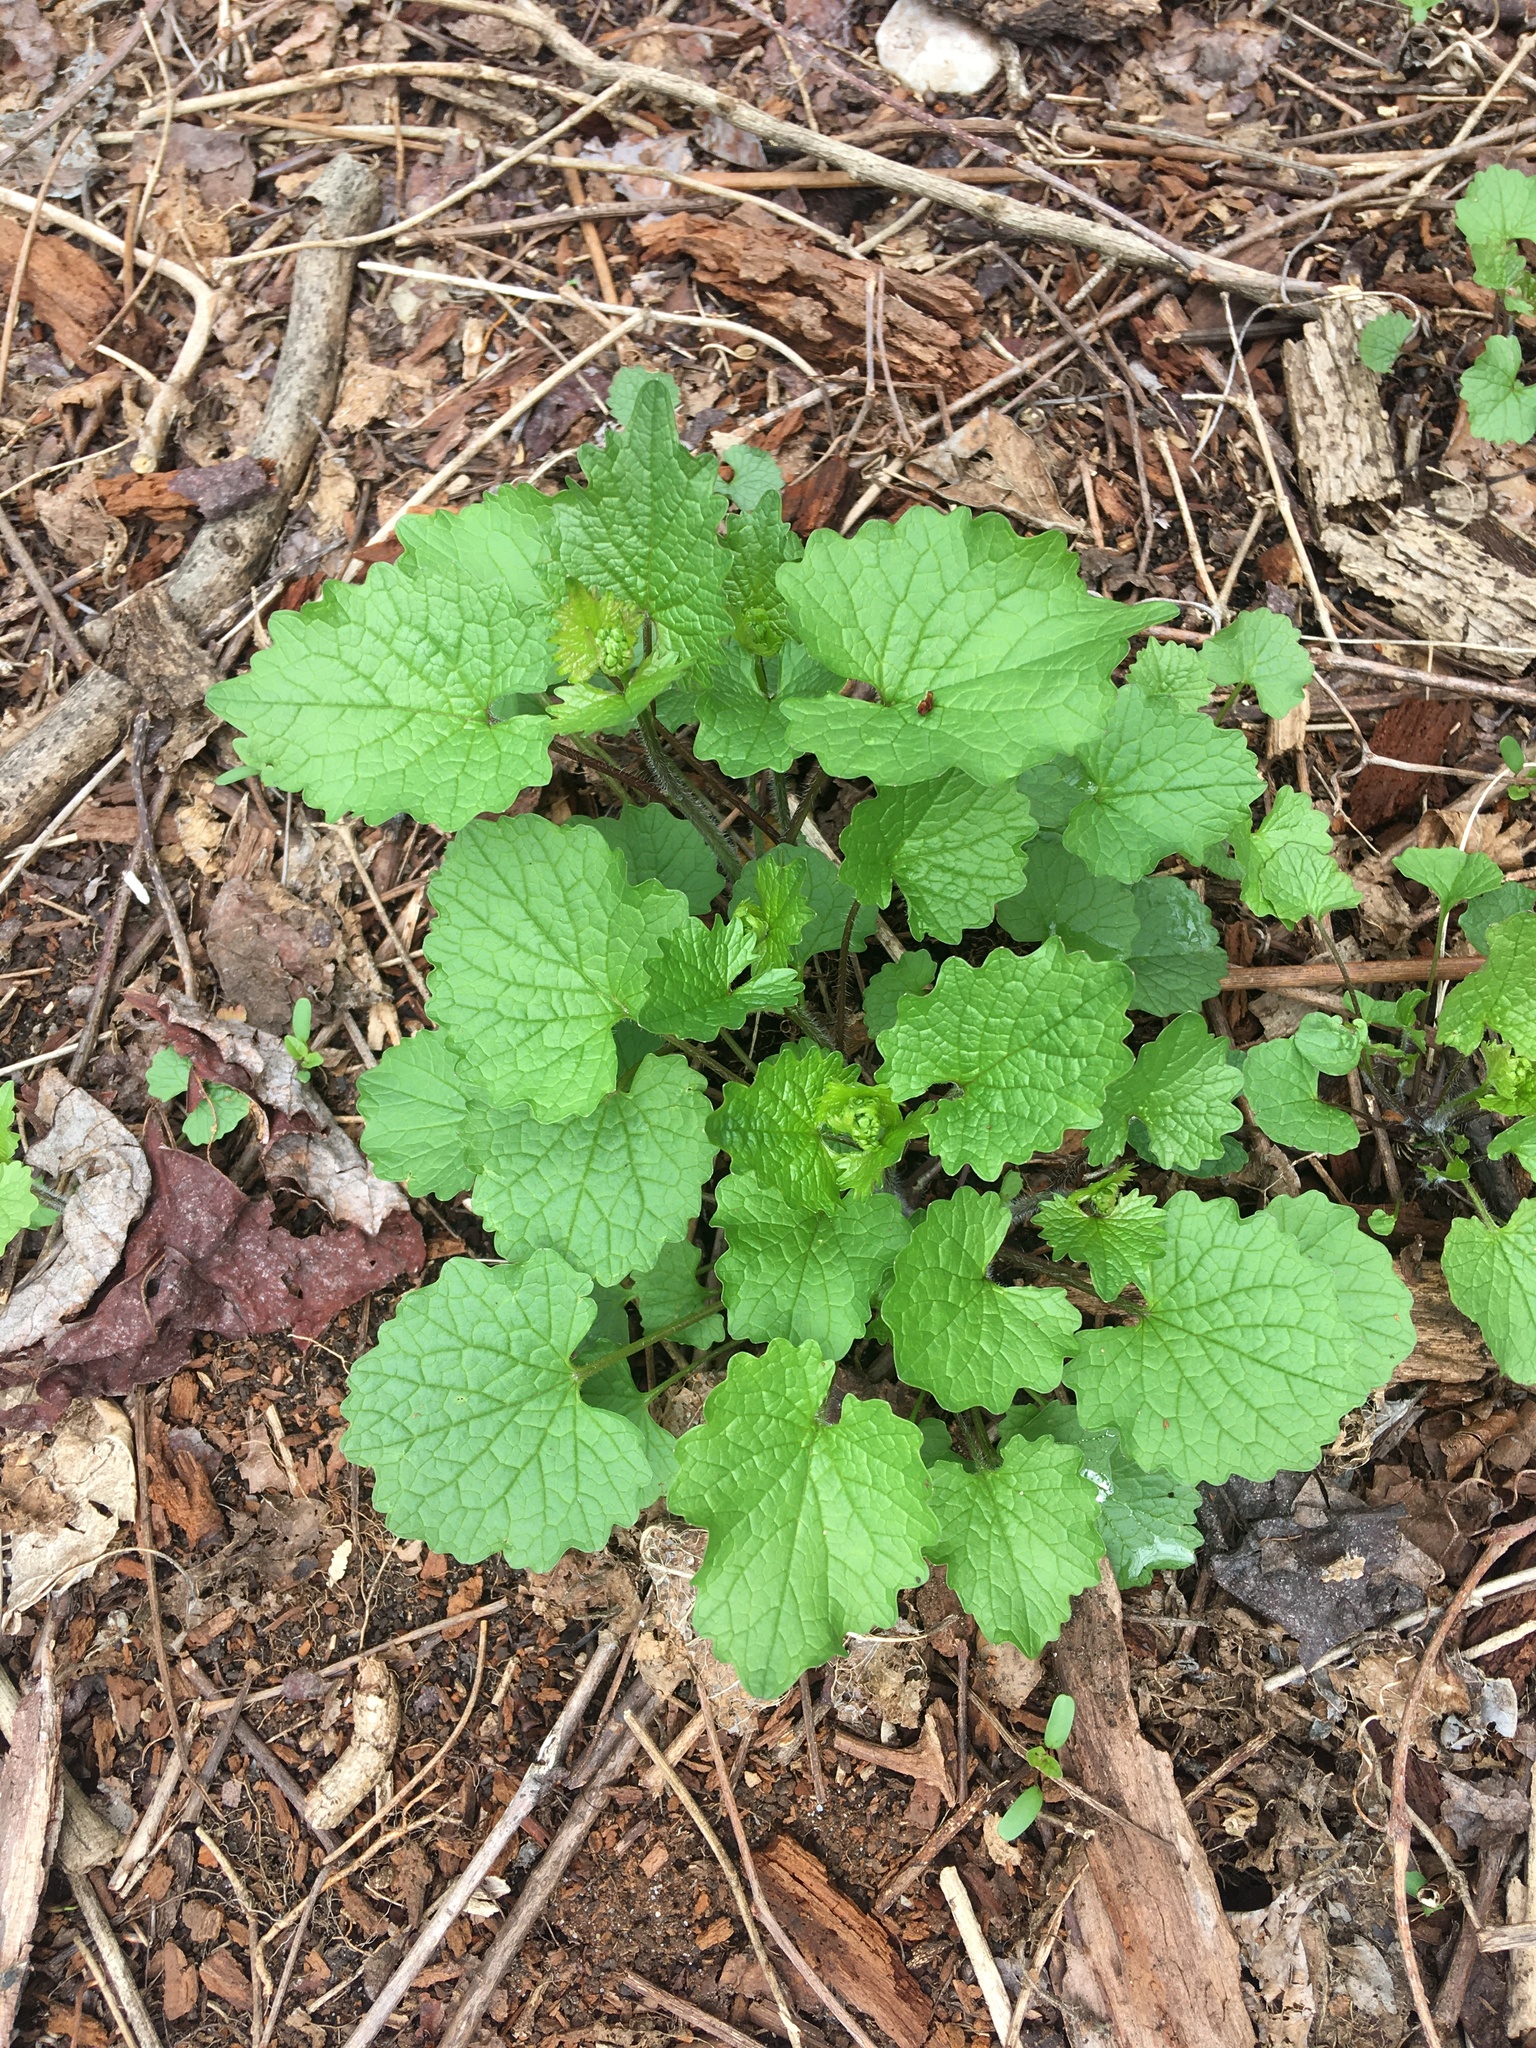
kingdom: Plantae
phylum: Tracheophyta
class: Magnoliopsida
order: Brassicales
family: Brassicaceae
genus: Alliaria
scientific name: Alliaria petiolata
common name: Garlic mustard
